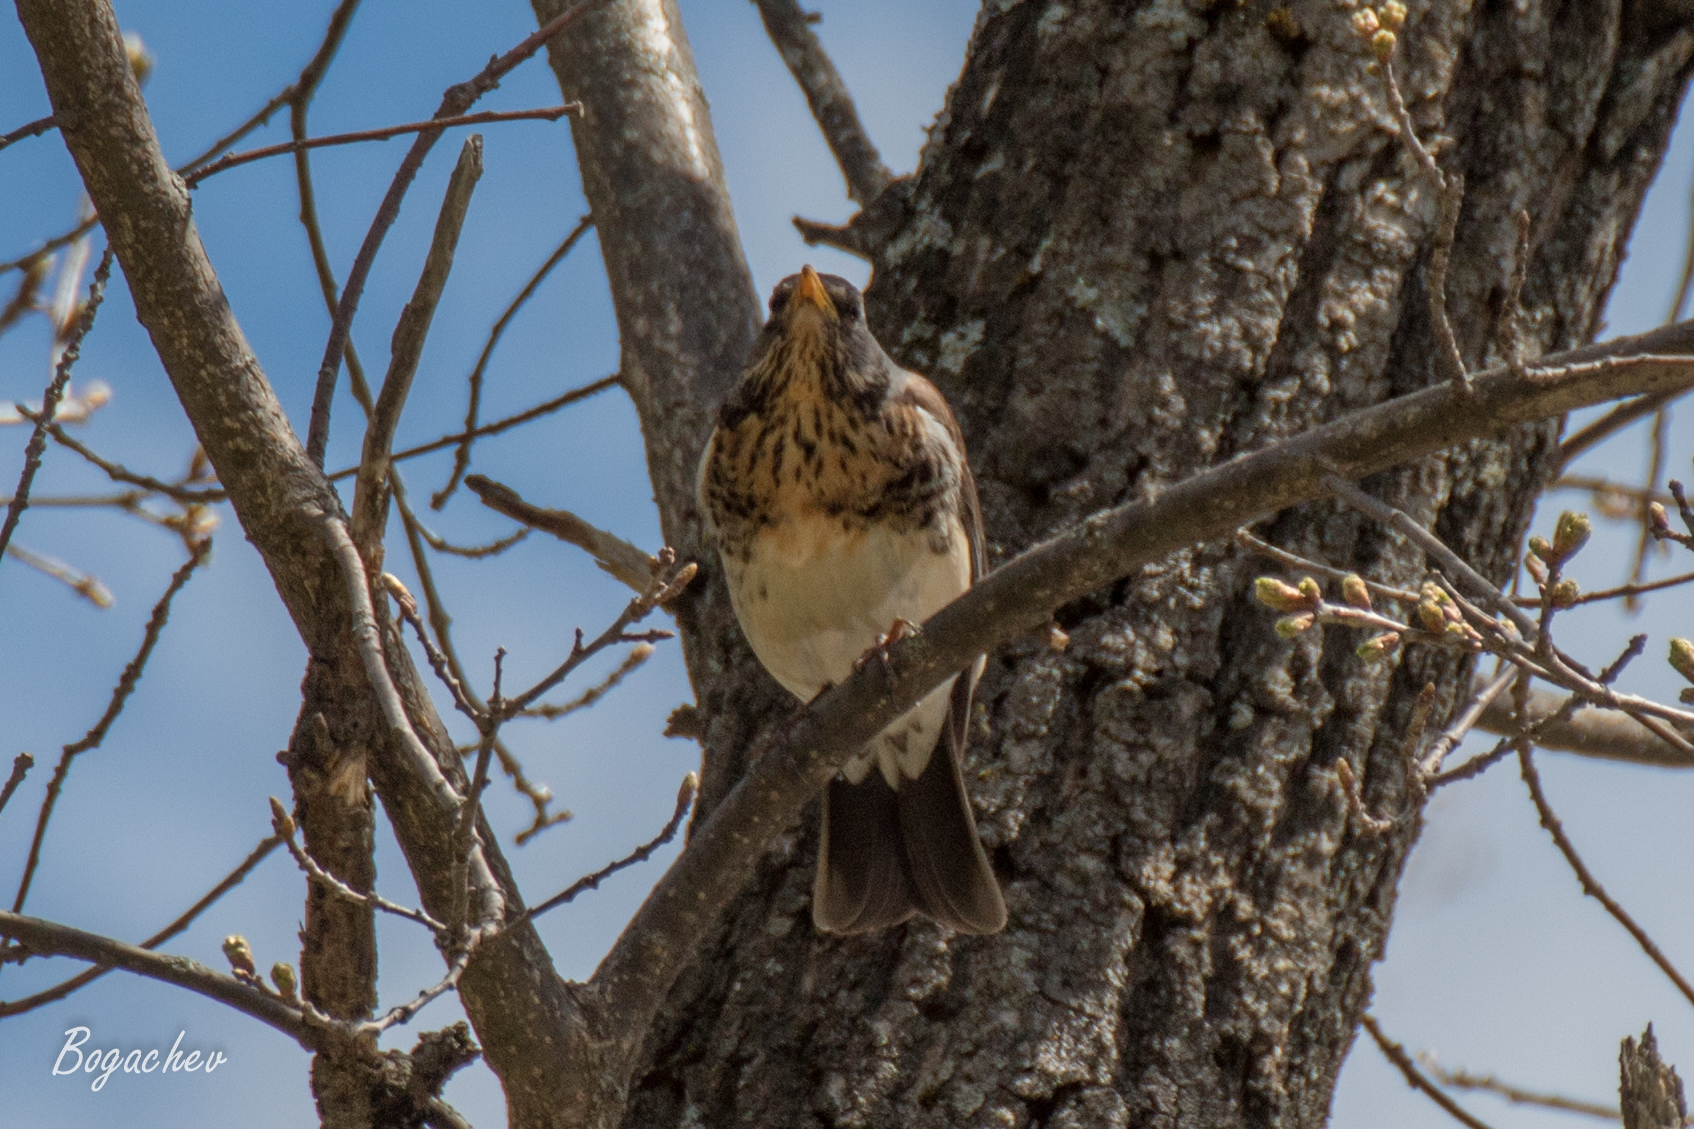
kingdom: Animalia
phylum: Chordata
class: Aves
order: Passeriformes
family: Turdidae
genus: Turdus
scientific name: Turdus pilaris
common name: Fieldfare
